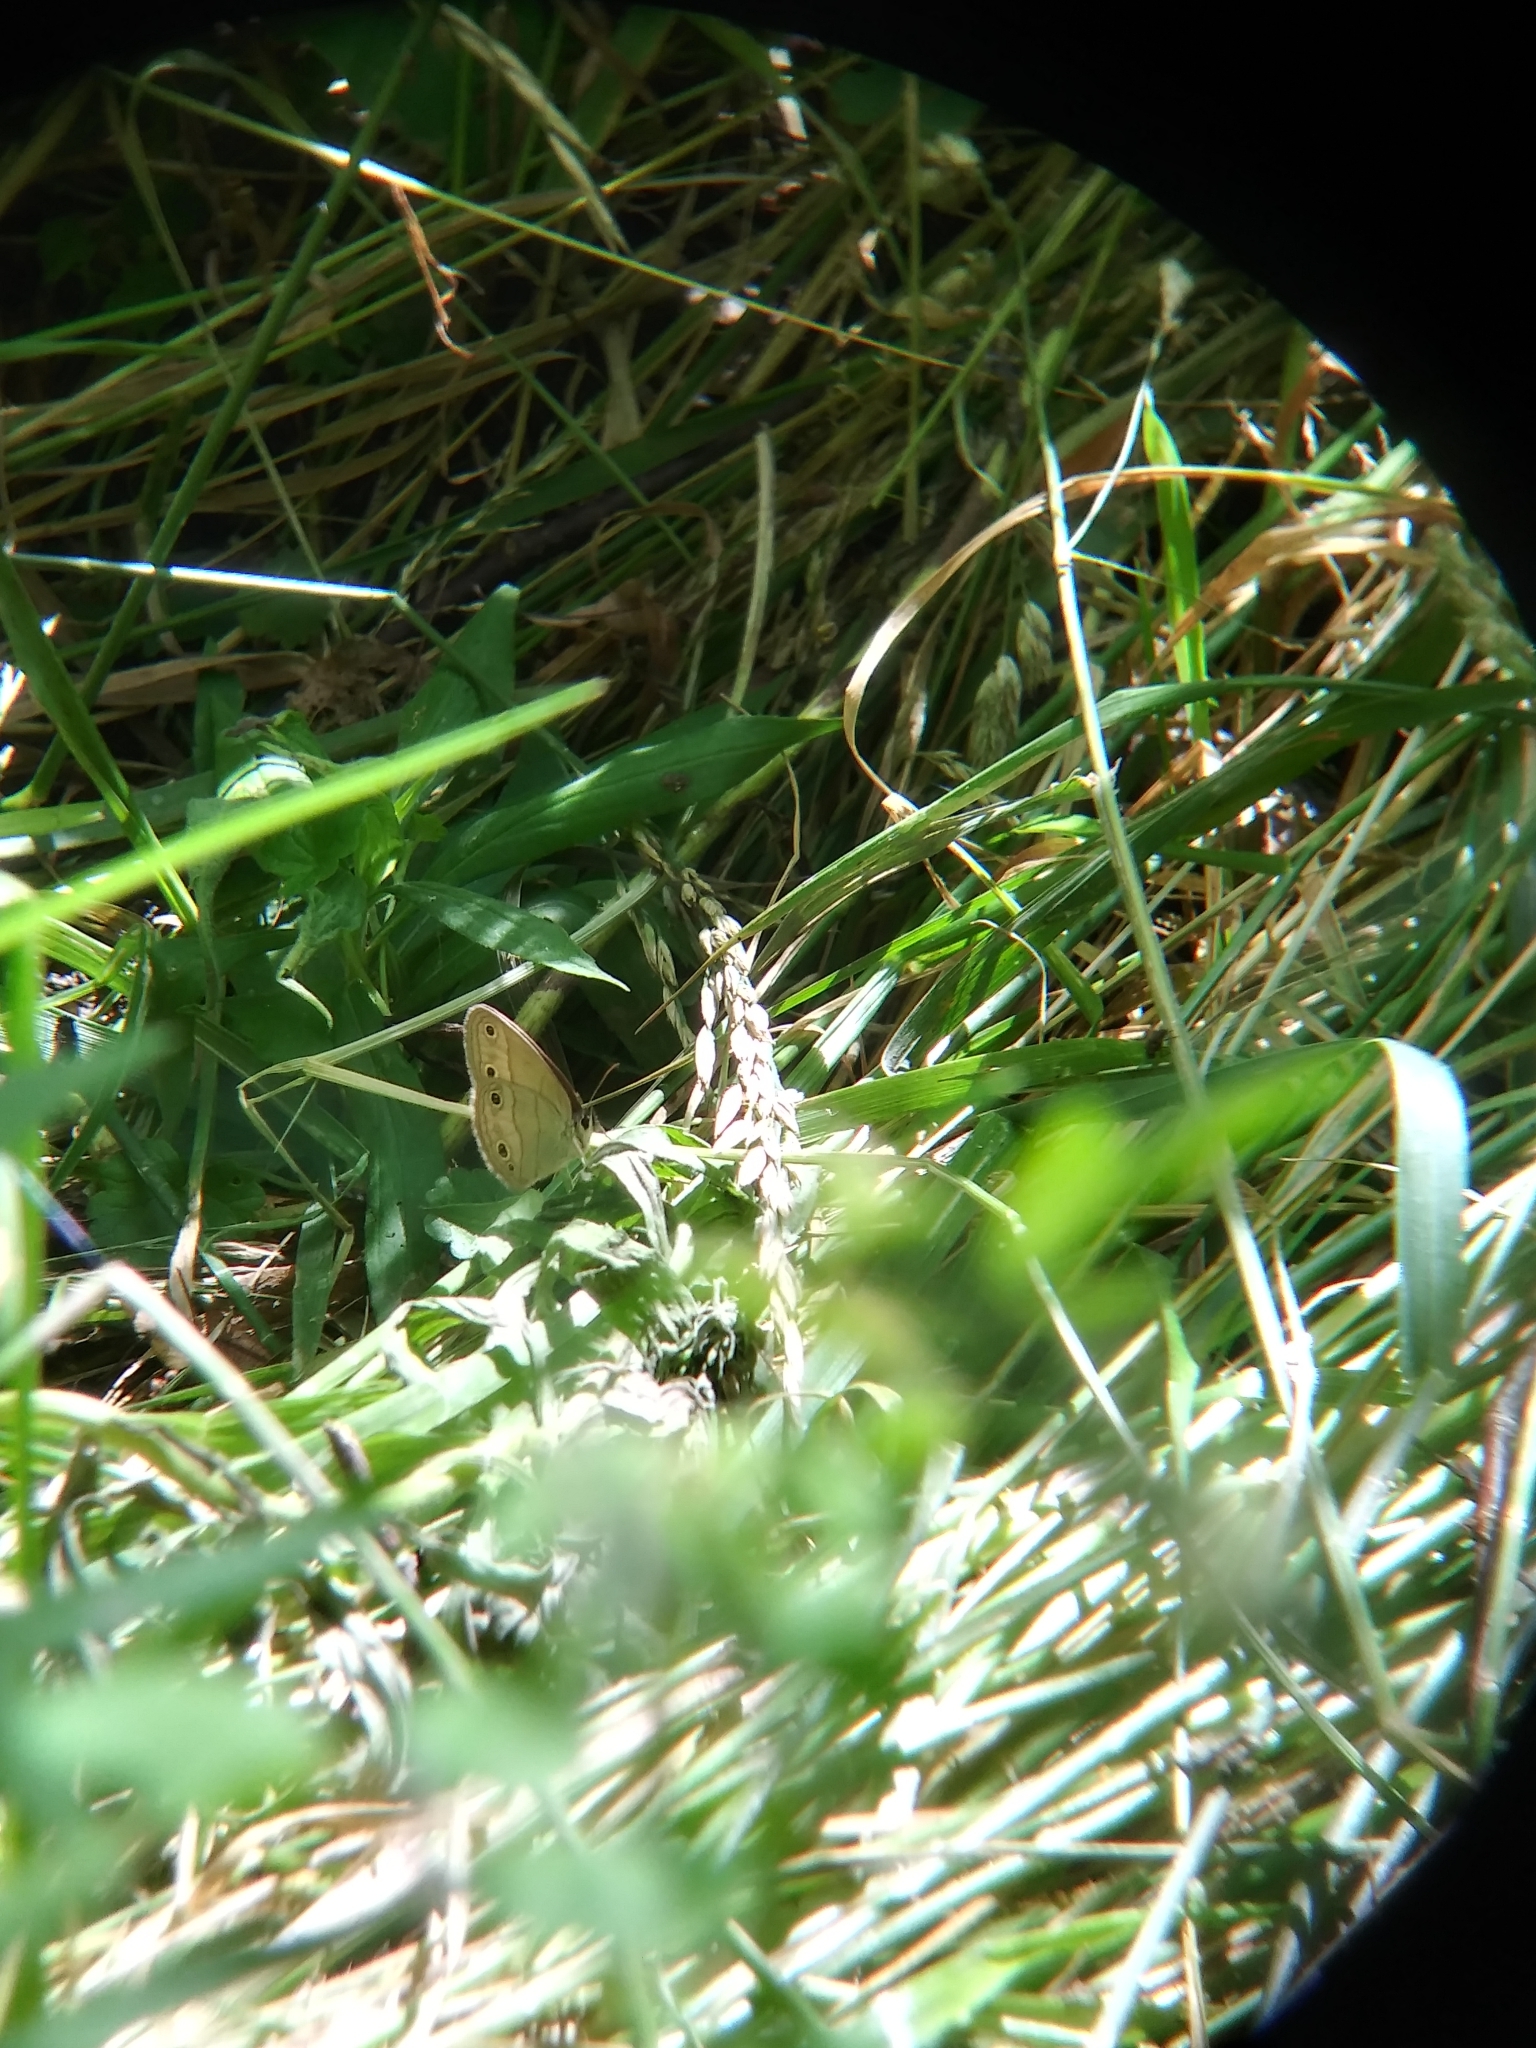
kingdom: Animalia
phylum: Arthropoda
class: Insecta
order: Lepidoptera
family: Nymphalidae
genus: Euptychia
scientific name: Euptychia cymela
